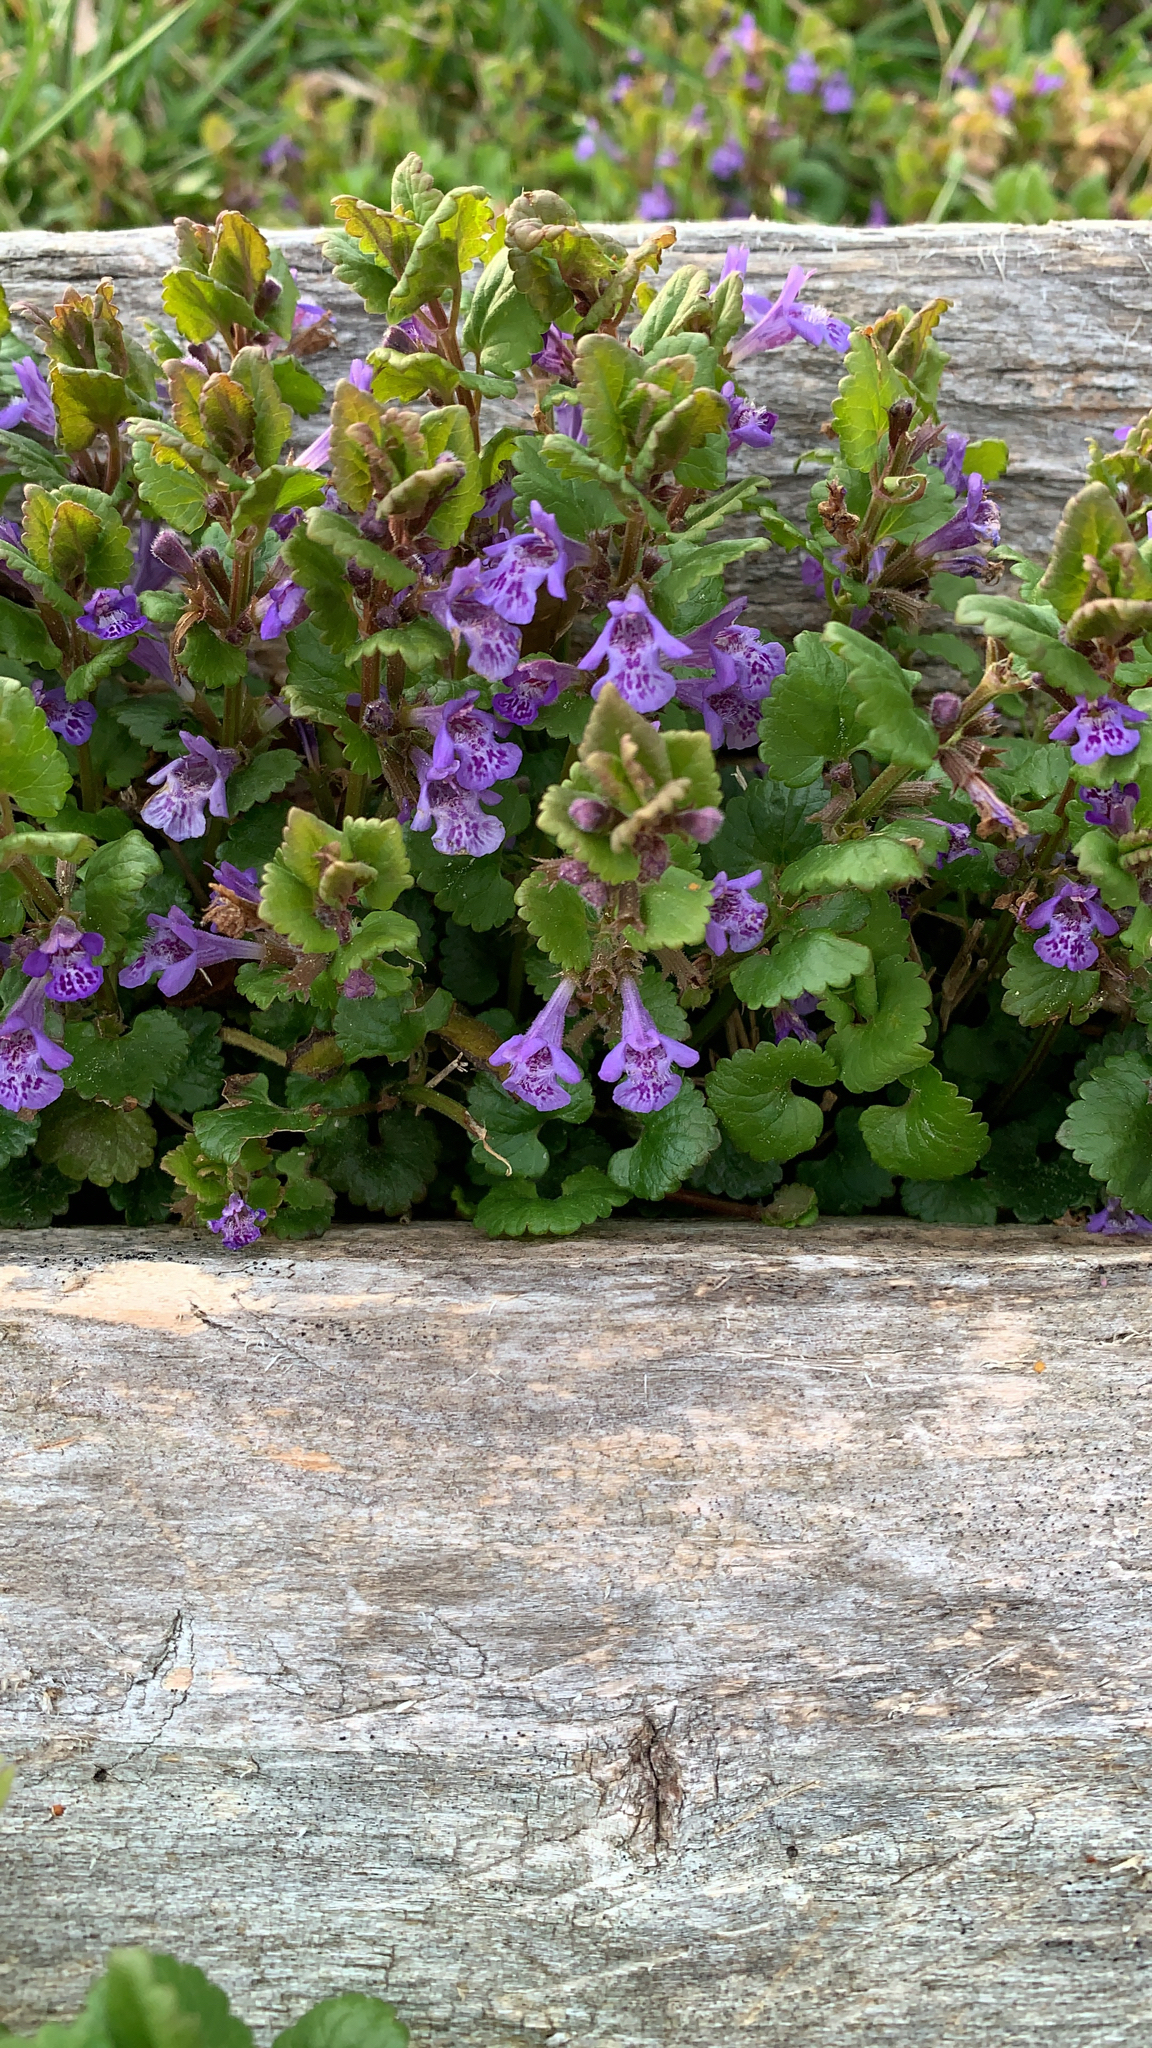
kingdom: Plantae
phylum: Tracheophyta
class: Magnoliopsida
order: Lamiales
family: Lamiaceae
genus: Glechoma
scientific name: Glechoma hederacea
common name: Ground ivy
